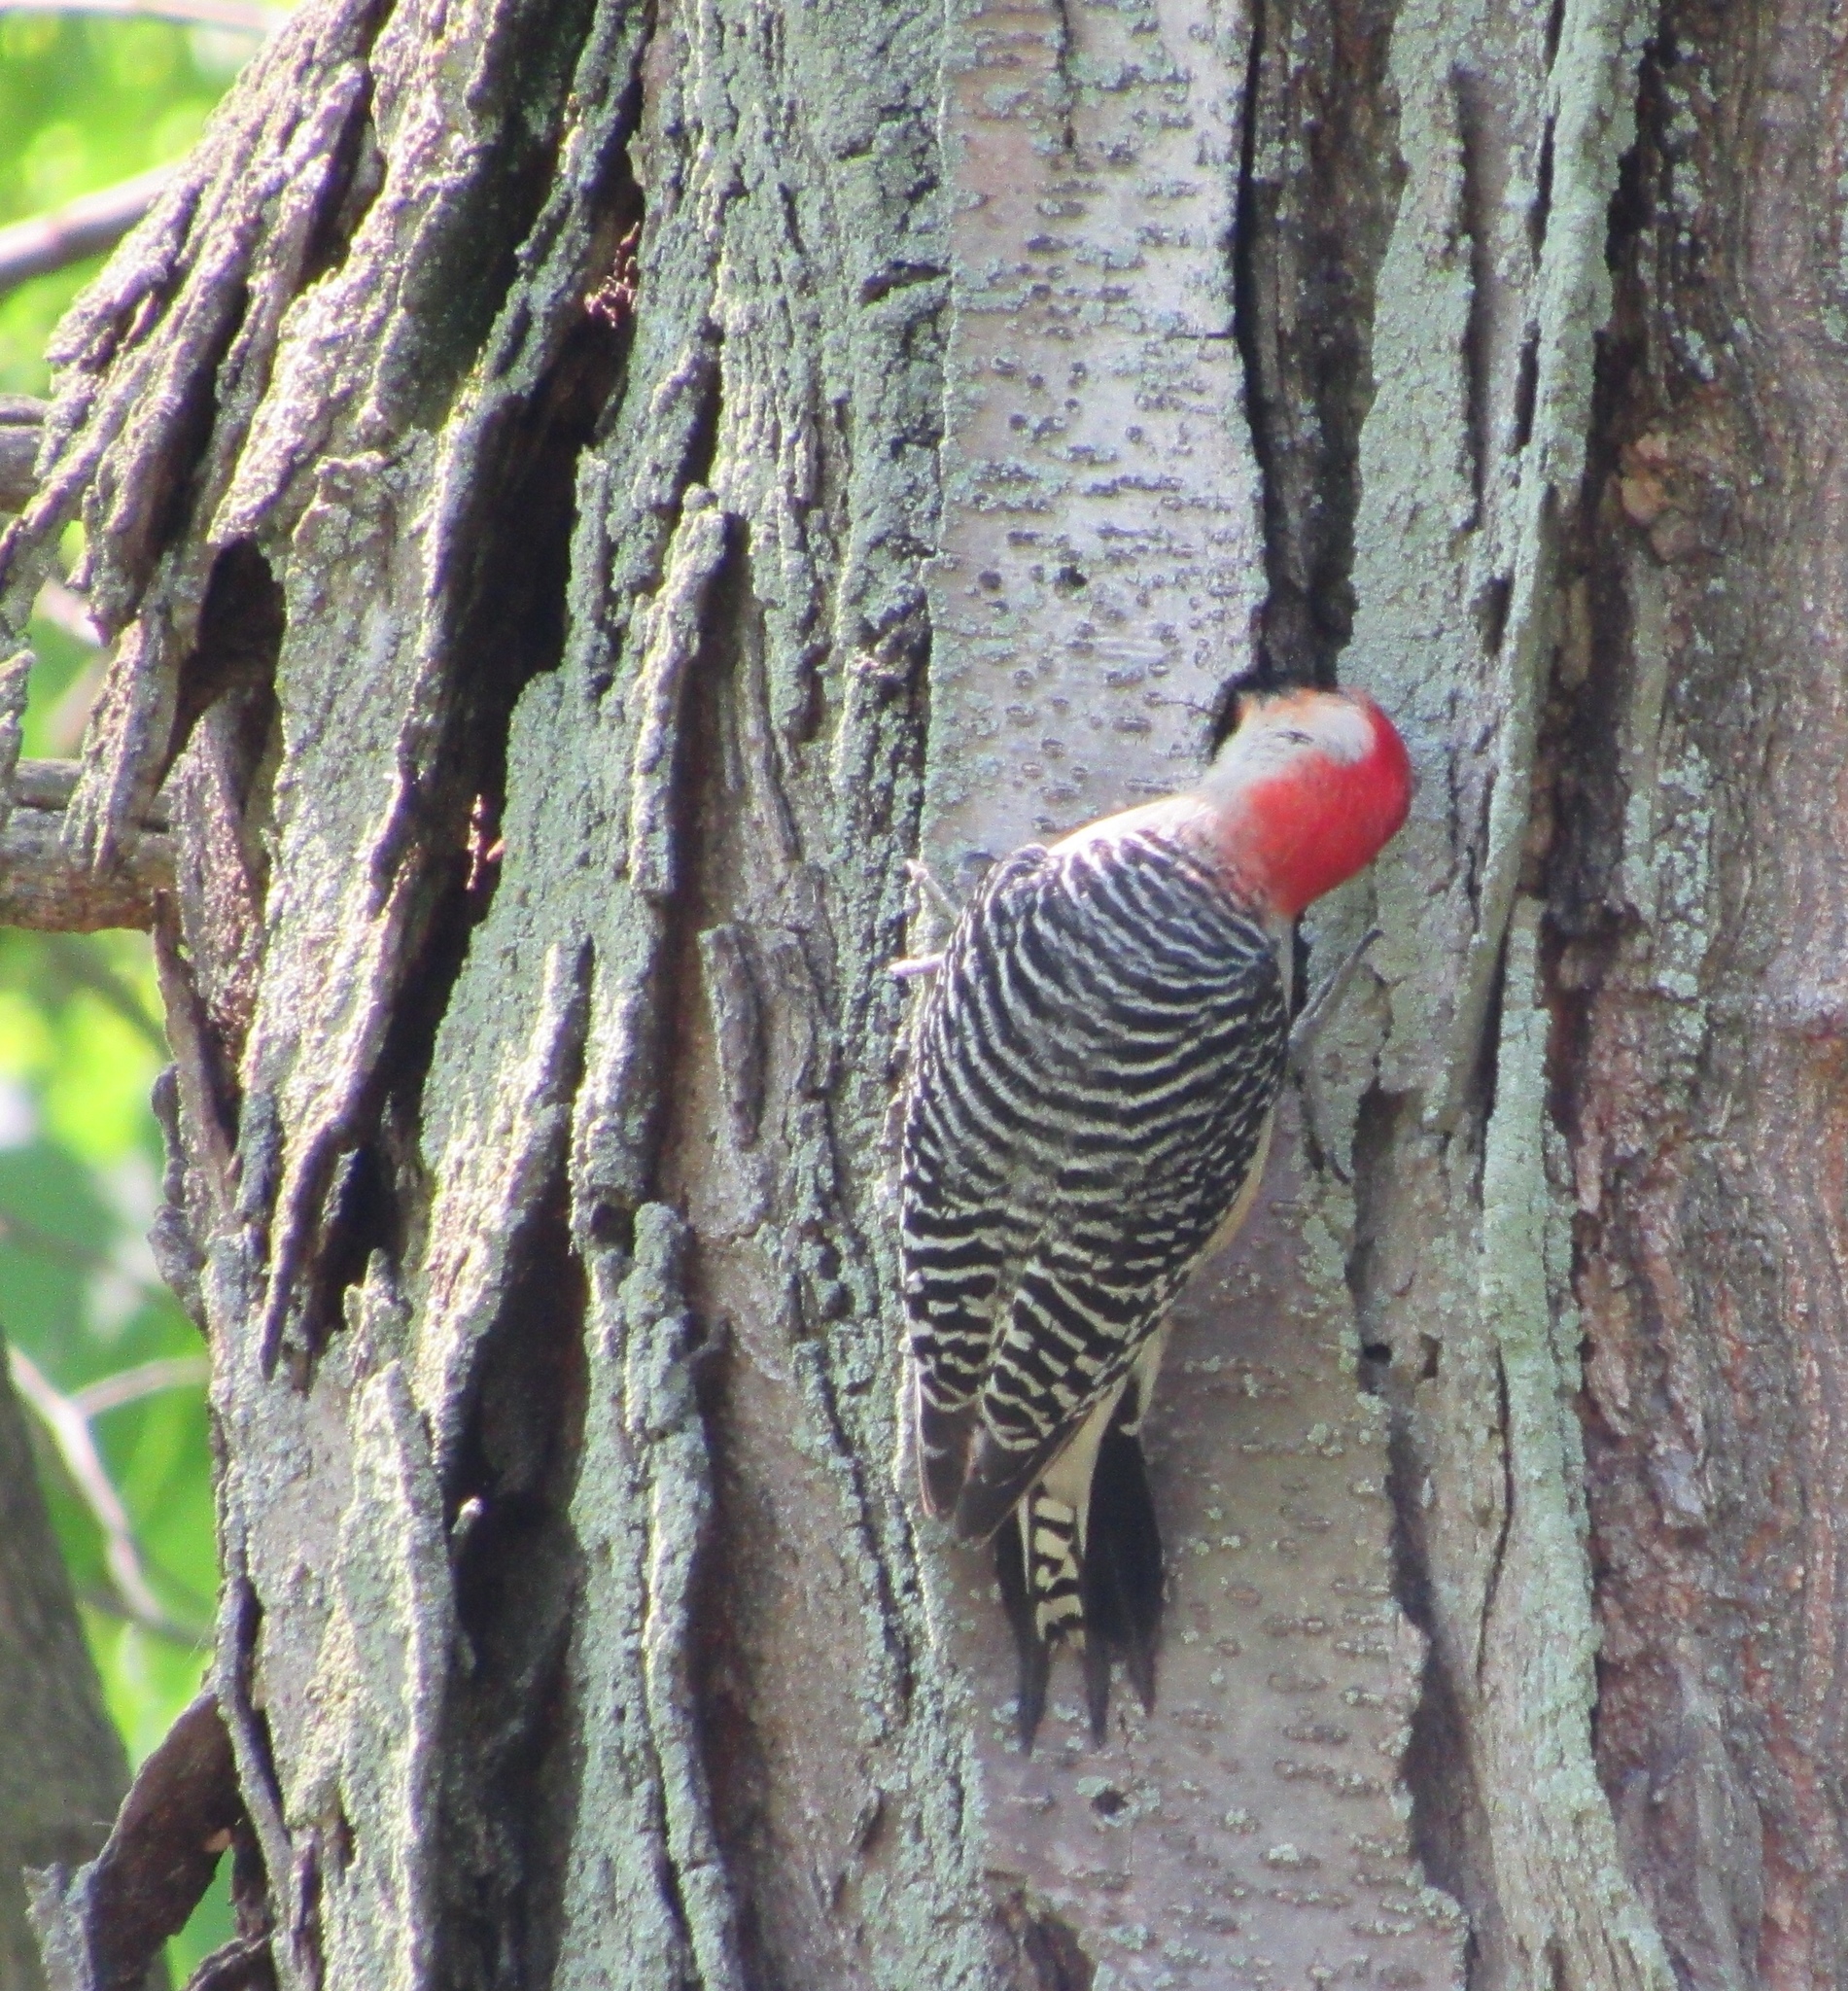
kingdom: Animalia
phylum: Chordata
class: Aves
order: Piciformes
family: Picidae
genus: Melanerpes
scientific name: Melanerpes carolinus
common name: Red-bellied woodpecker
